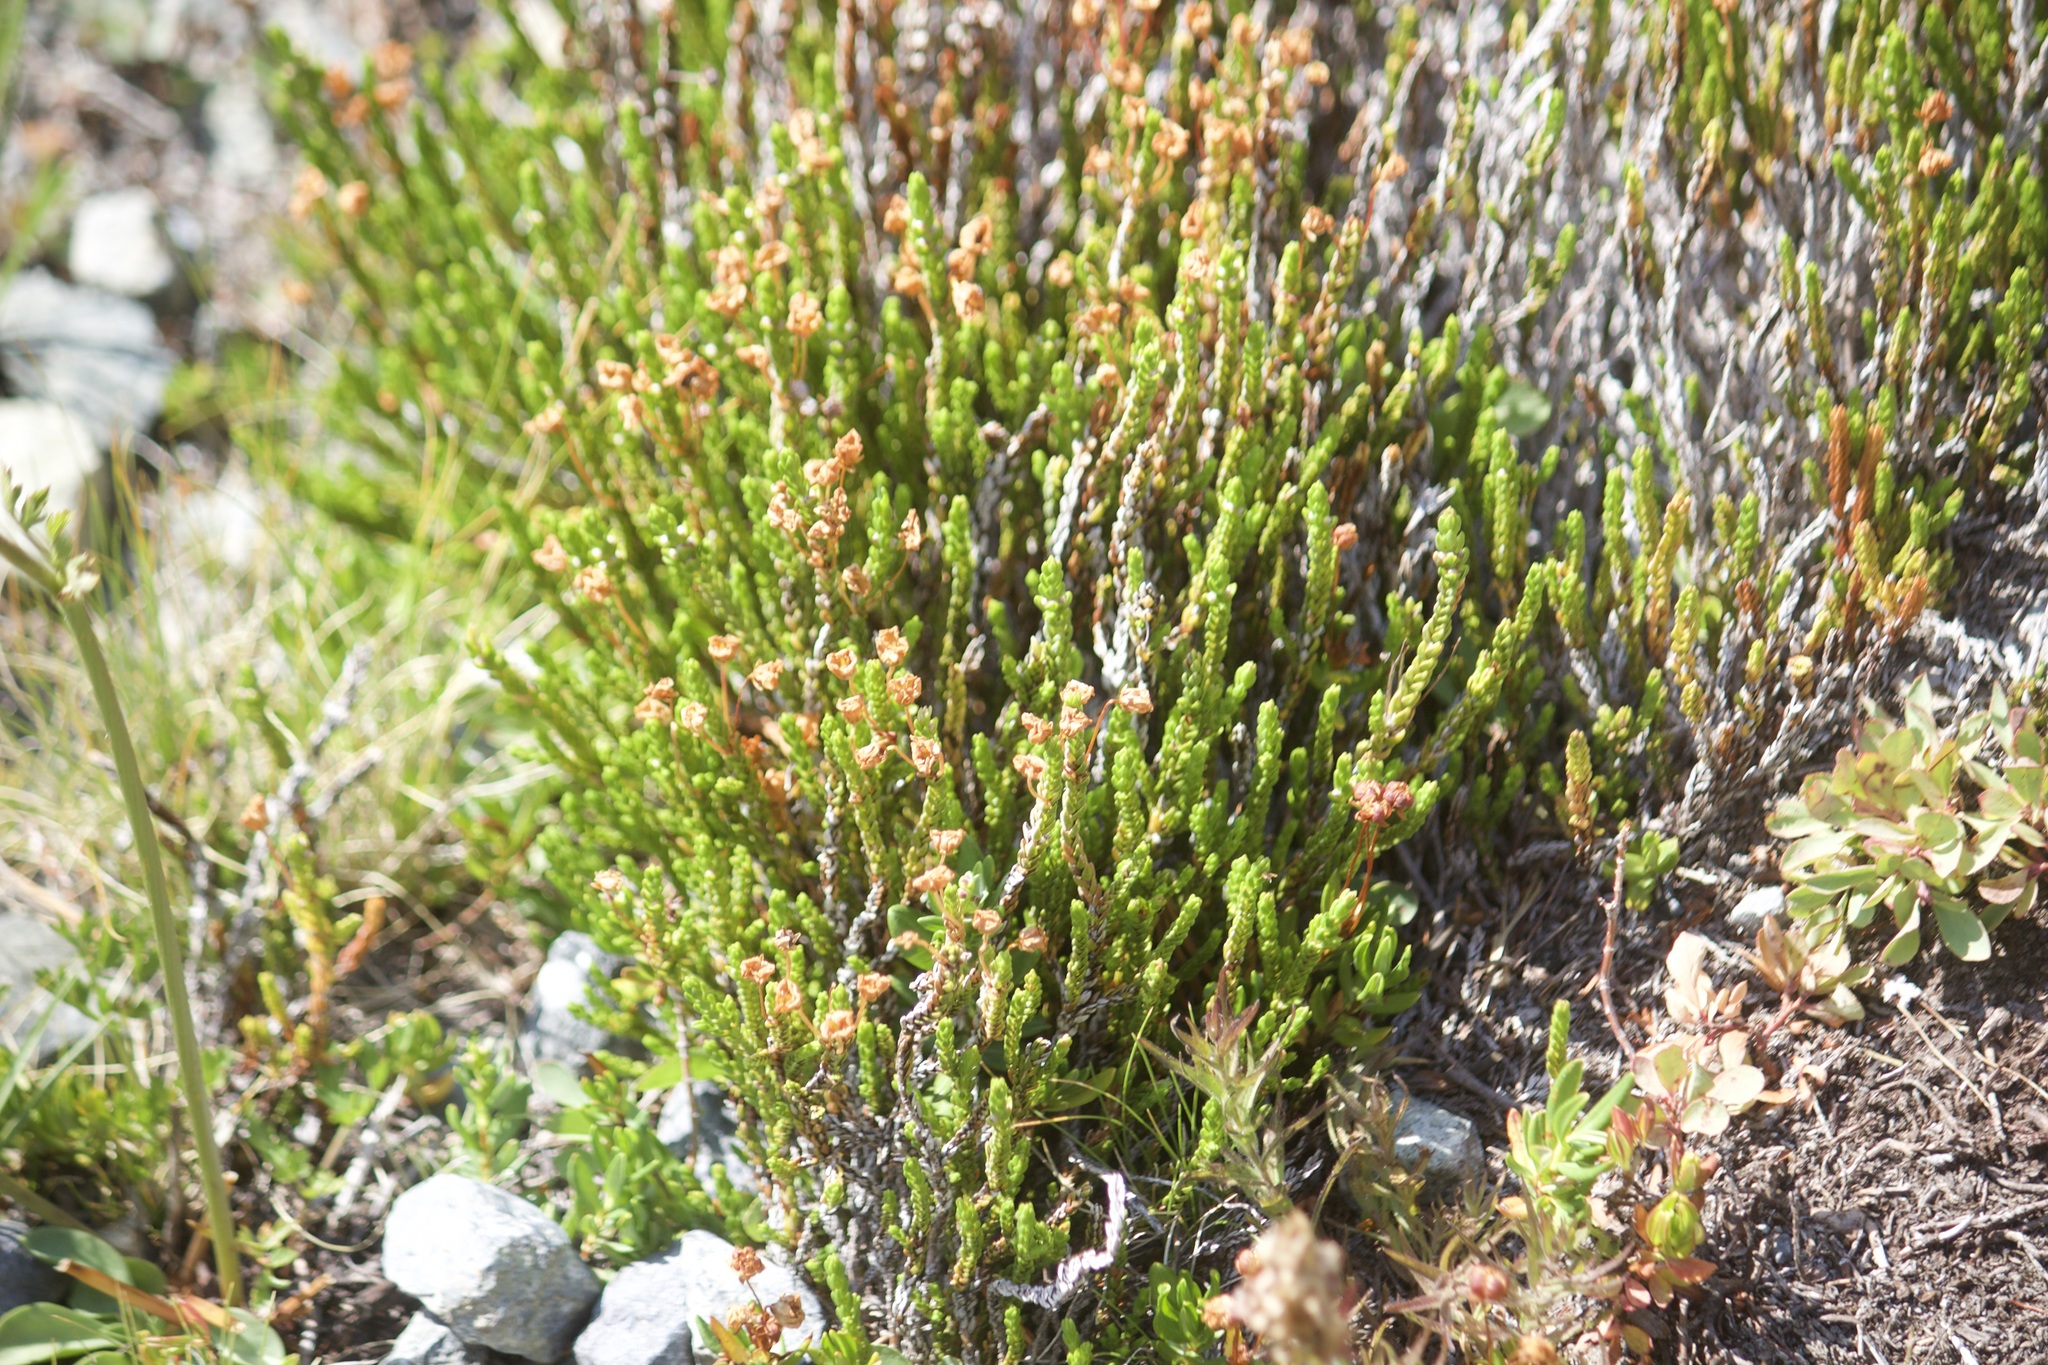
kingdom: Plantae
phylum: Tracheophyta
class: Magnoliopsida
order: Ericales
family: Ericaceae
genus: Cassiope
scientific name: Cassiope mertensiana
